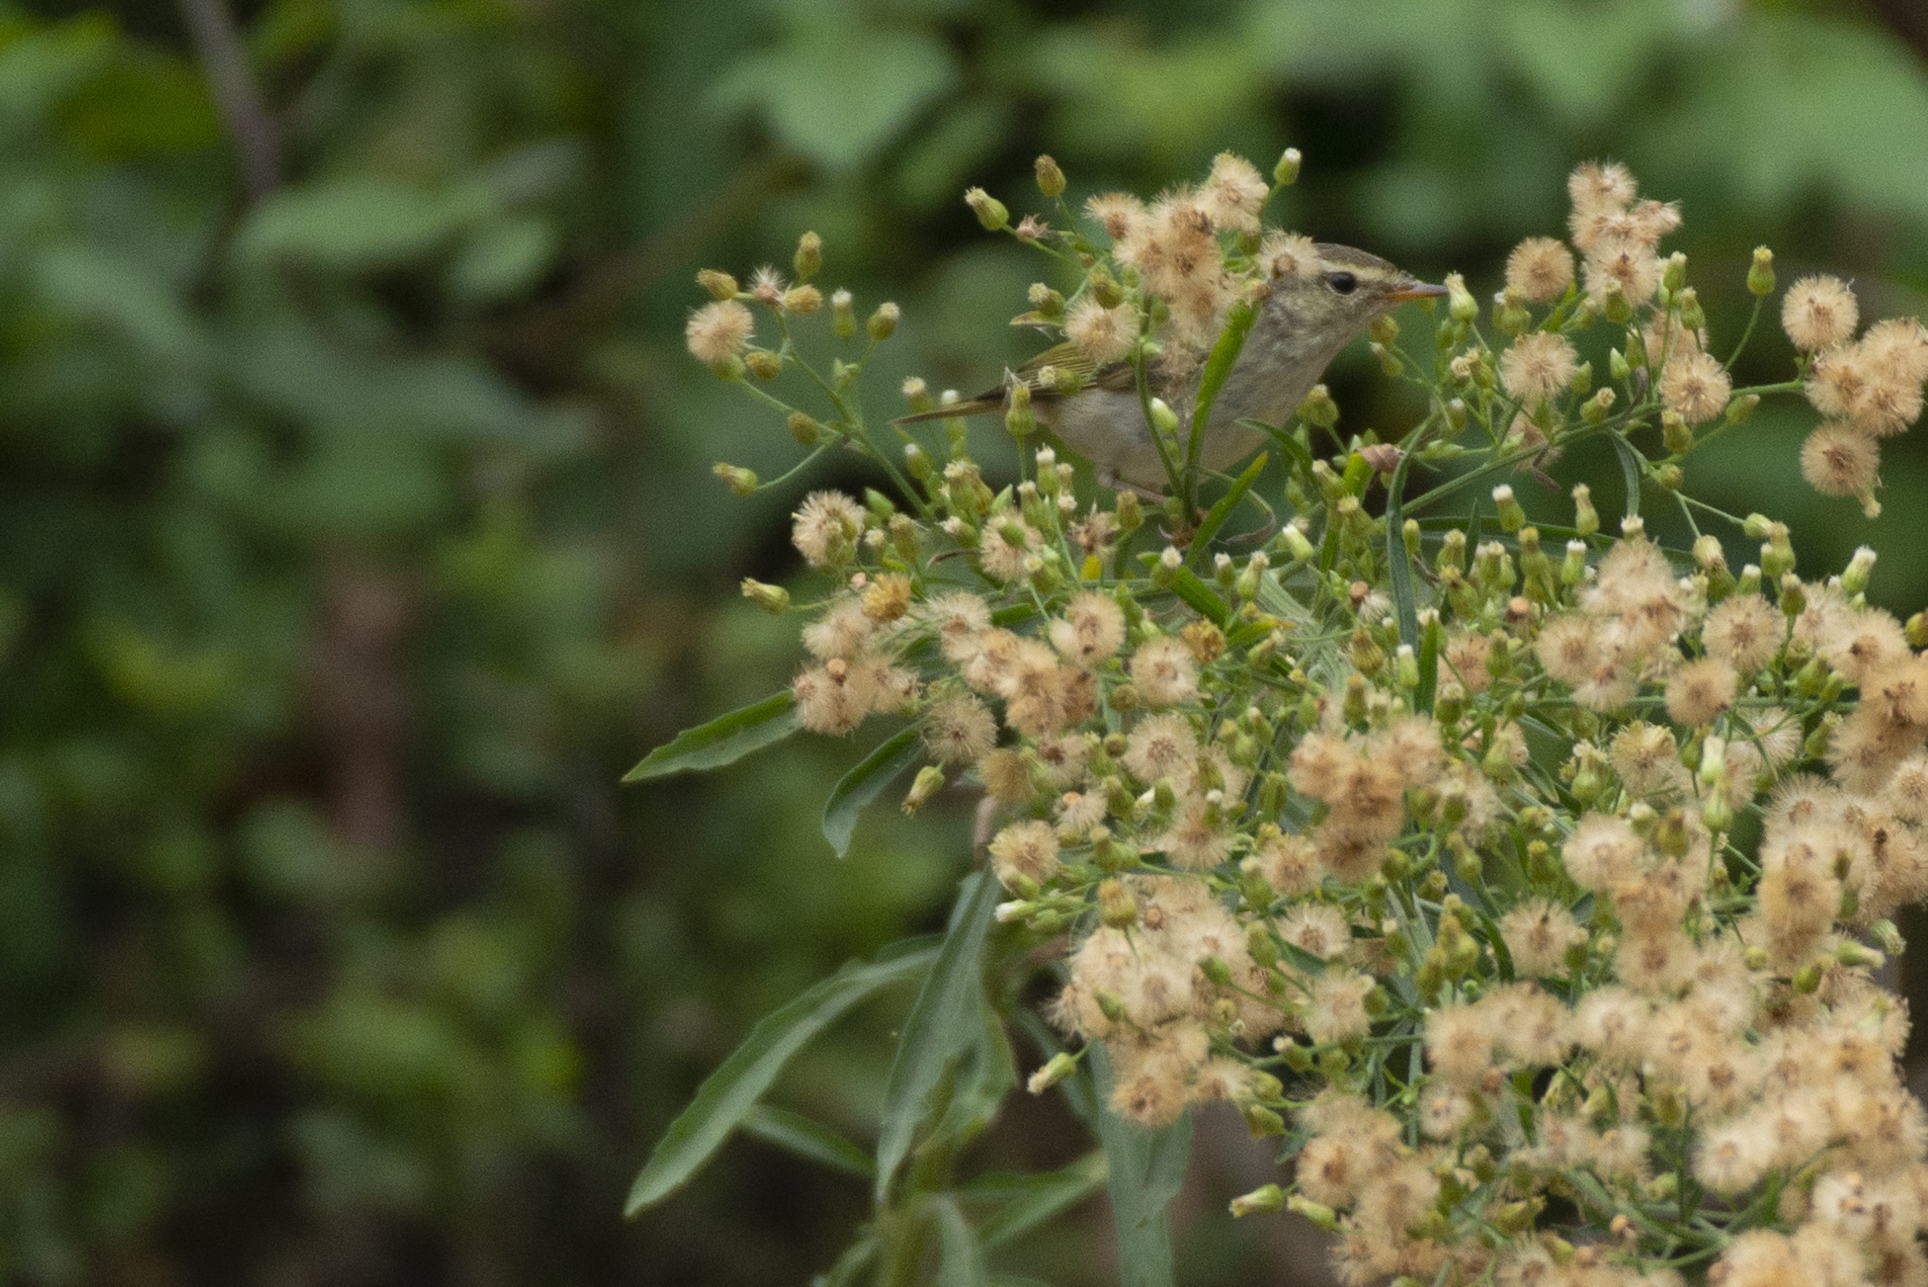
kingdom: Animalia
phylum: Chordata
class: Aves
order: Passeriformes
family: Phylloscopidae
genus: Phylloscopus
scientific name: Phylloscopus proregulus
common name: Pallas's leaf warbler
